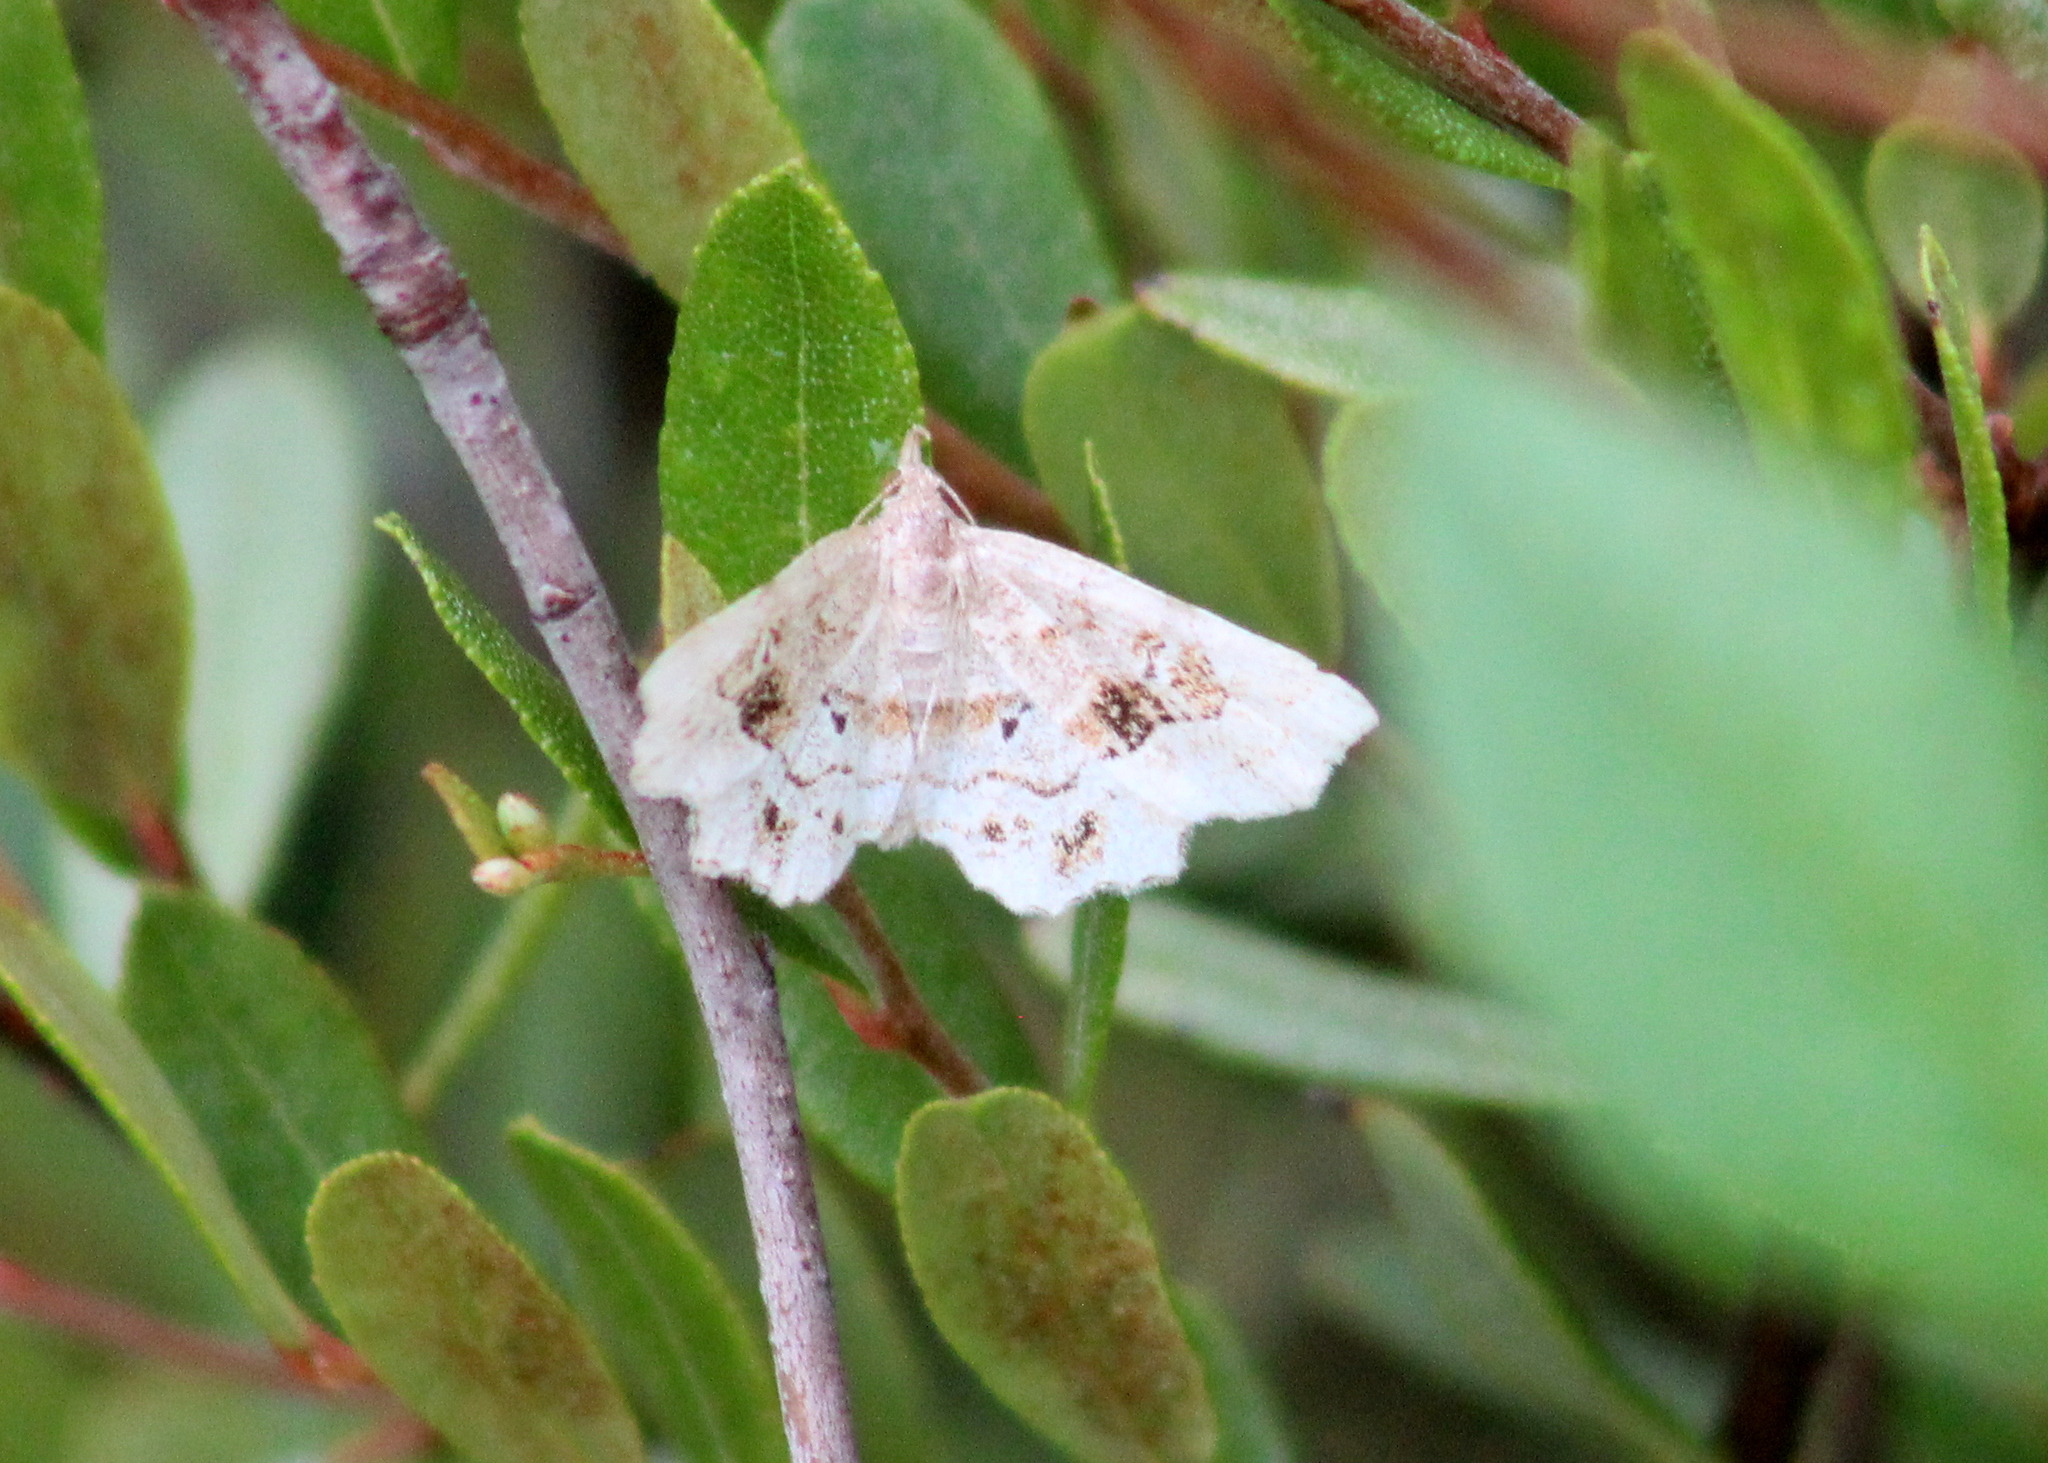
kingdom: Animalia
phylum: Arthropoda
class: Insecta
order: Lepidoptera
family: Erebidae
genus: Pangrapta
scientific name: Pangrapta decoralis
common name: Decorated owlet
